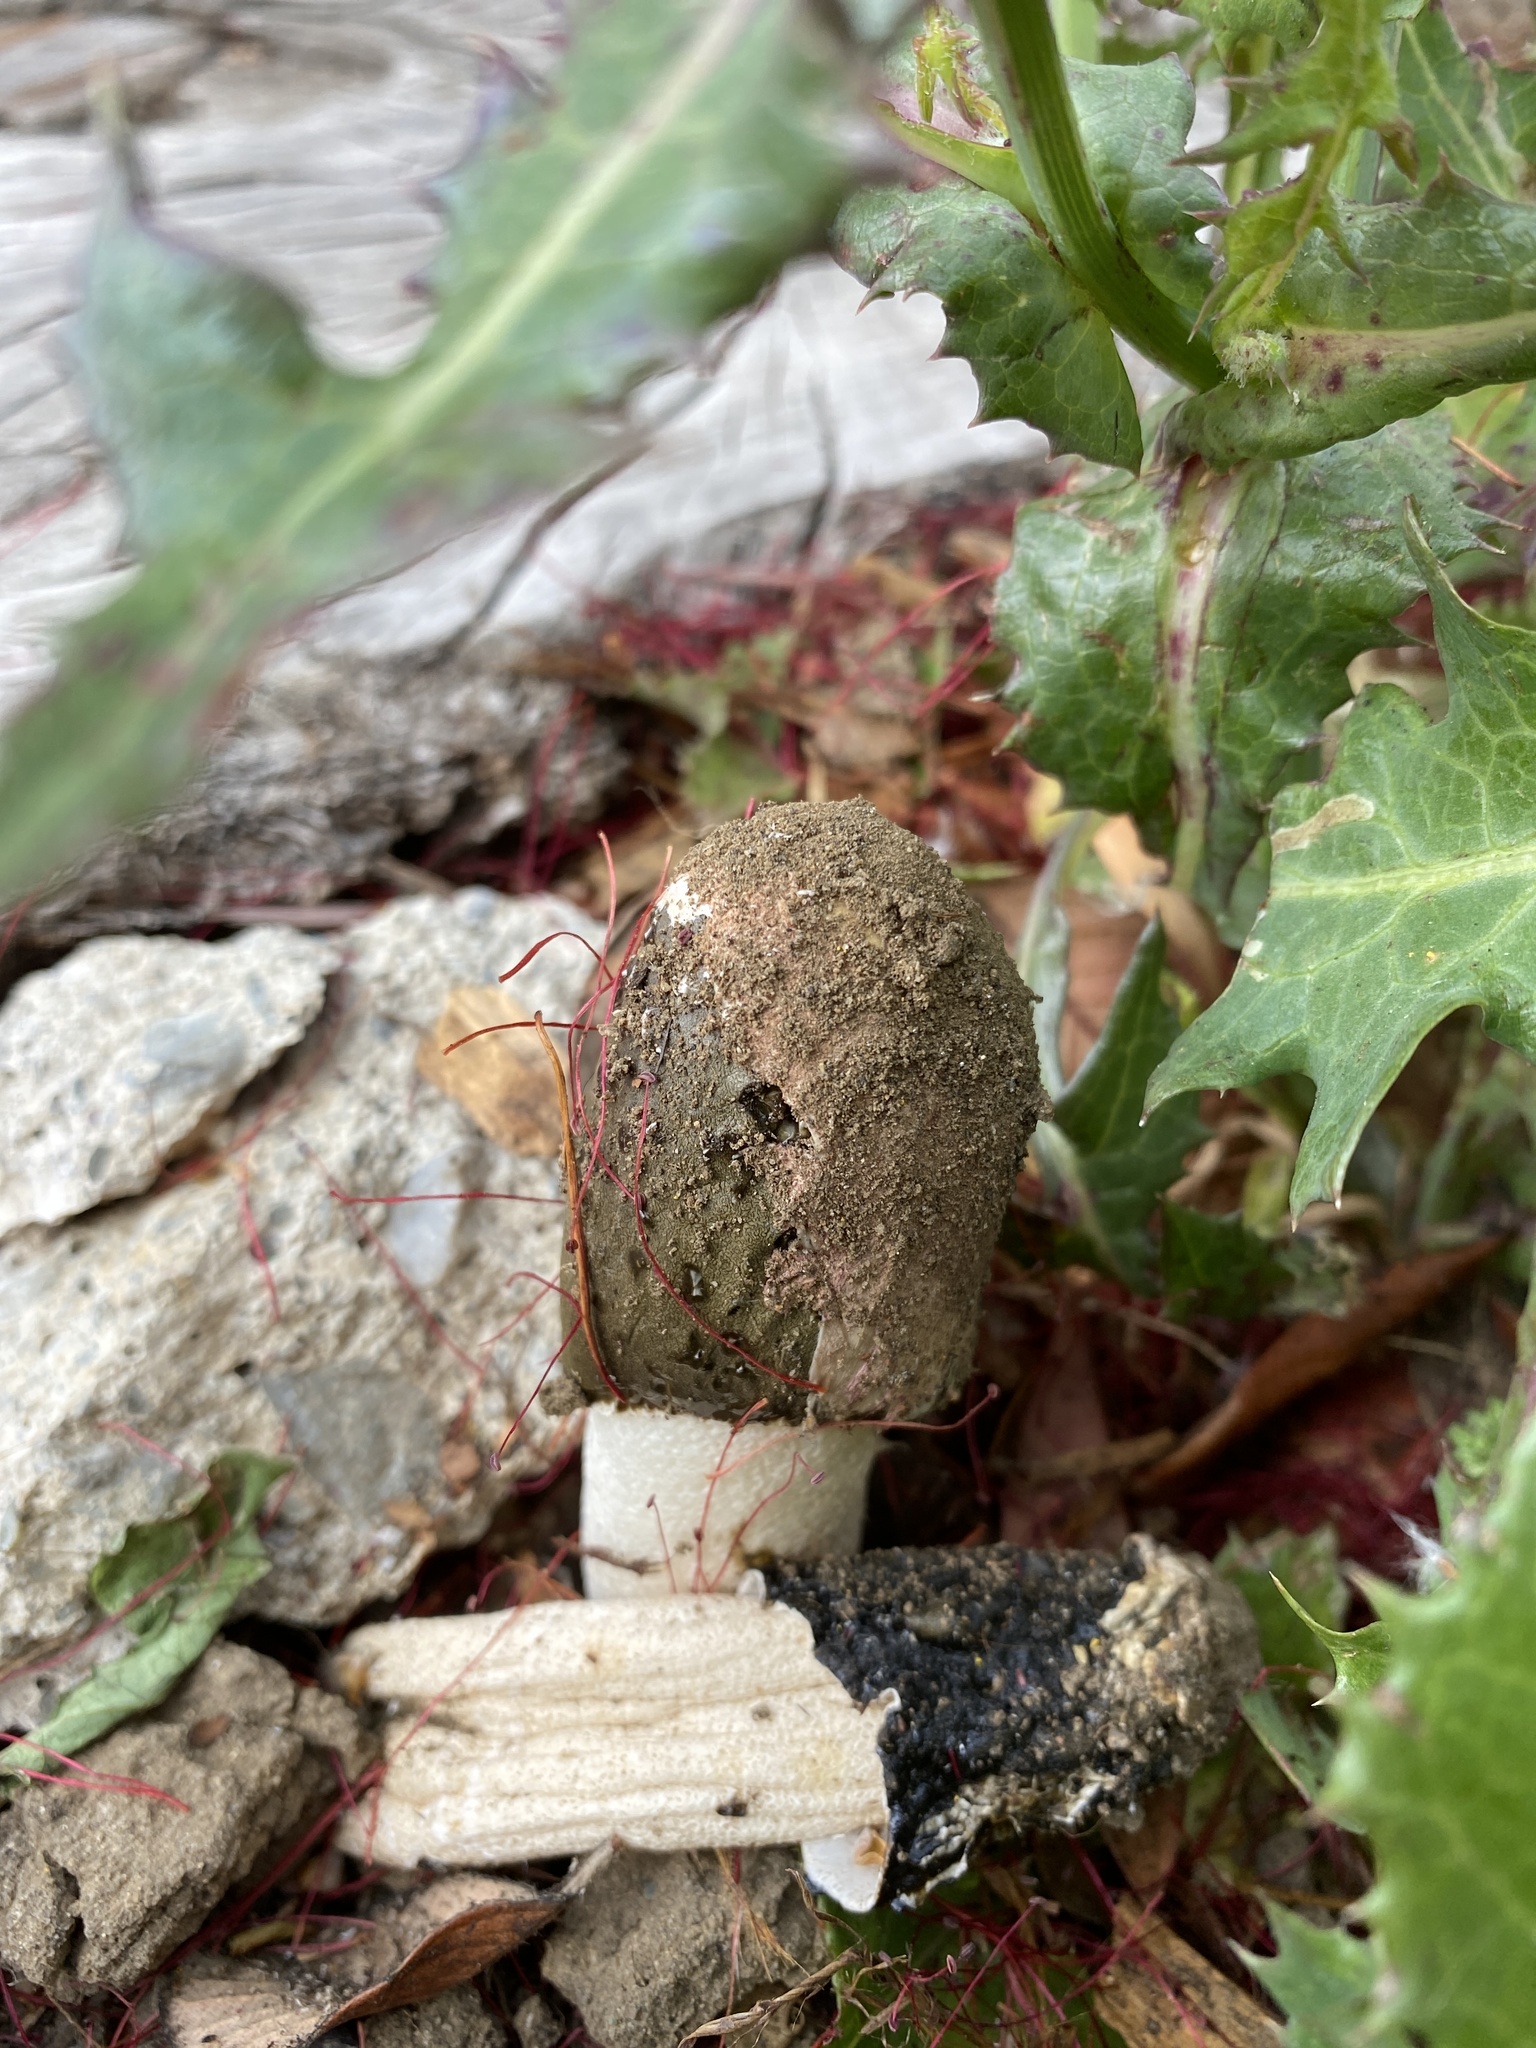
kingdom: Fungi
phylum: Basidiomycota
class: Agaricomycetes
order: Phallales
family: Phallaceae
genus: Phallus
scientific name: Phallus hadriani
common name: Sand stinkhorn
